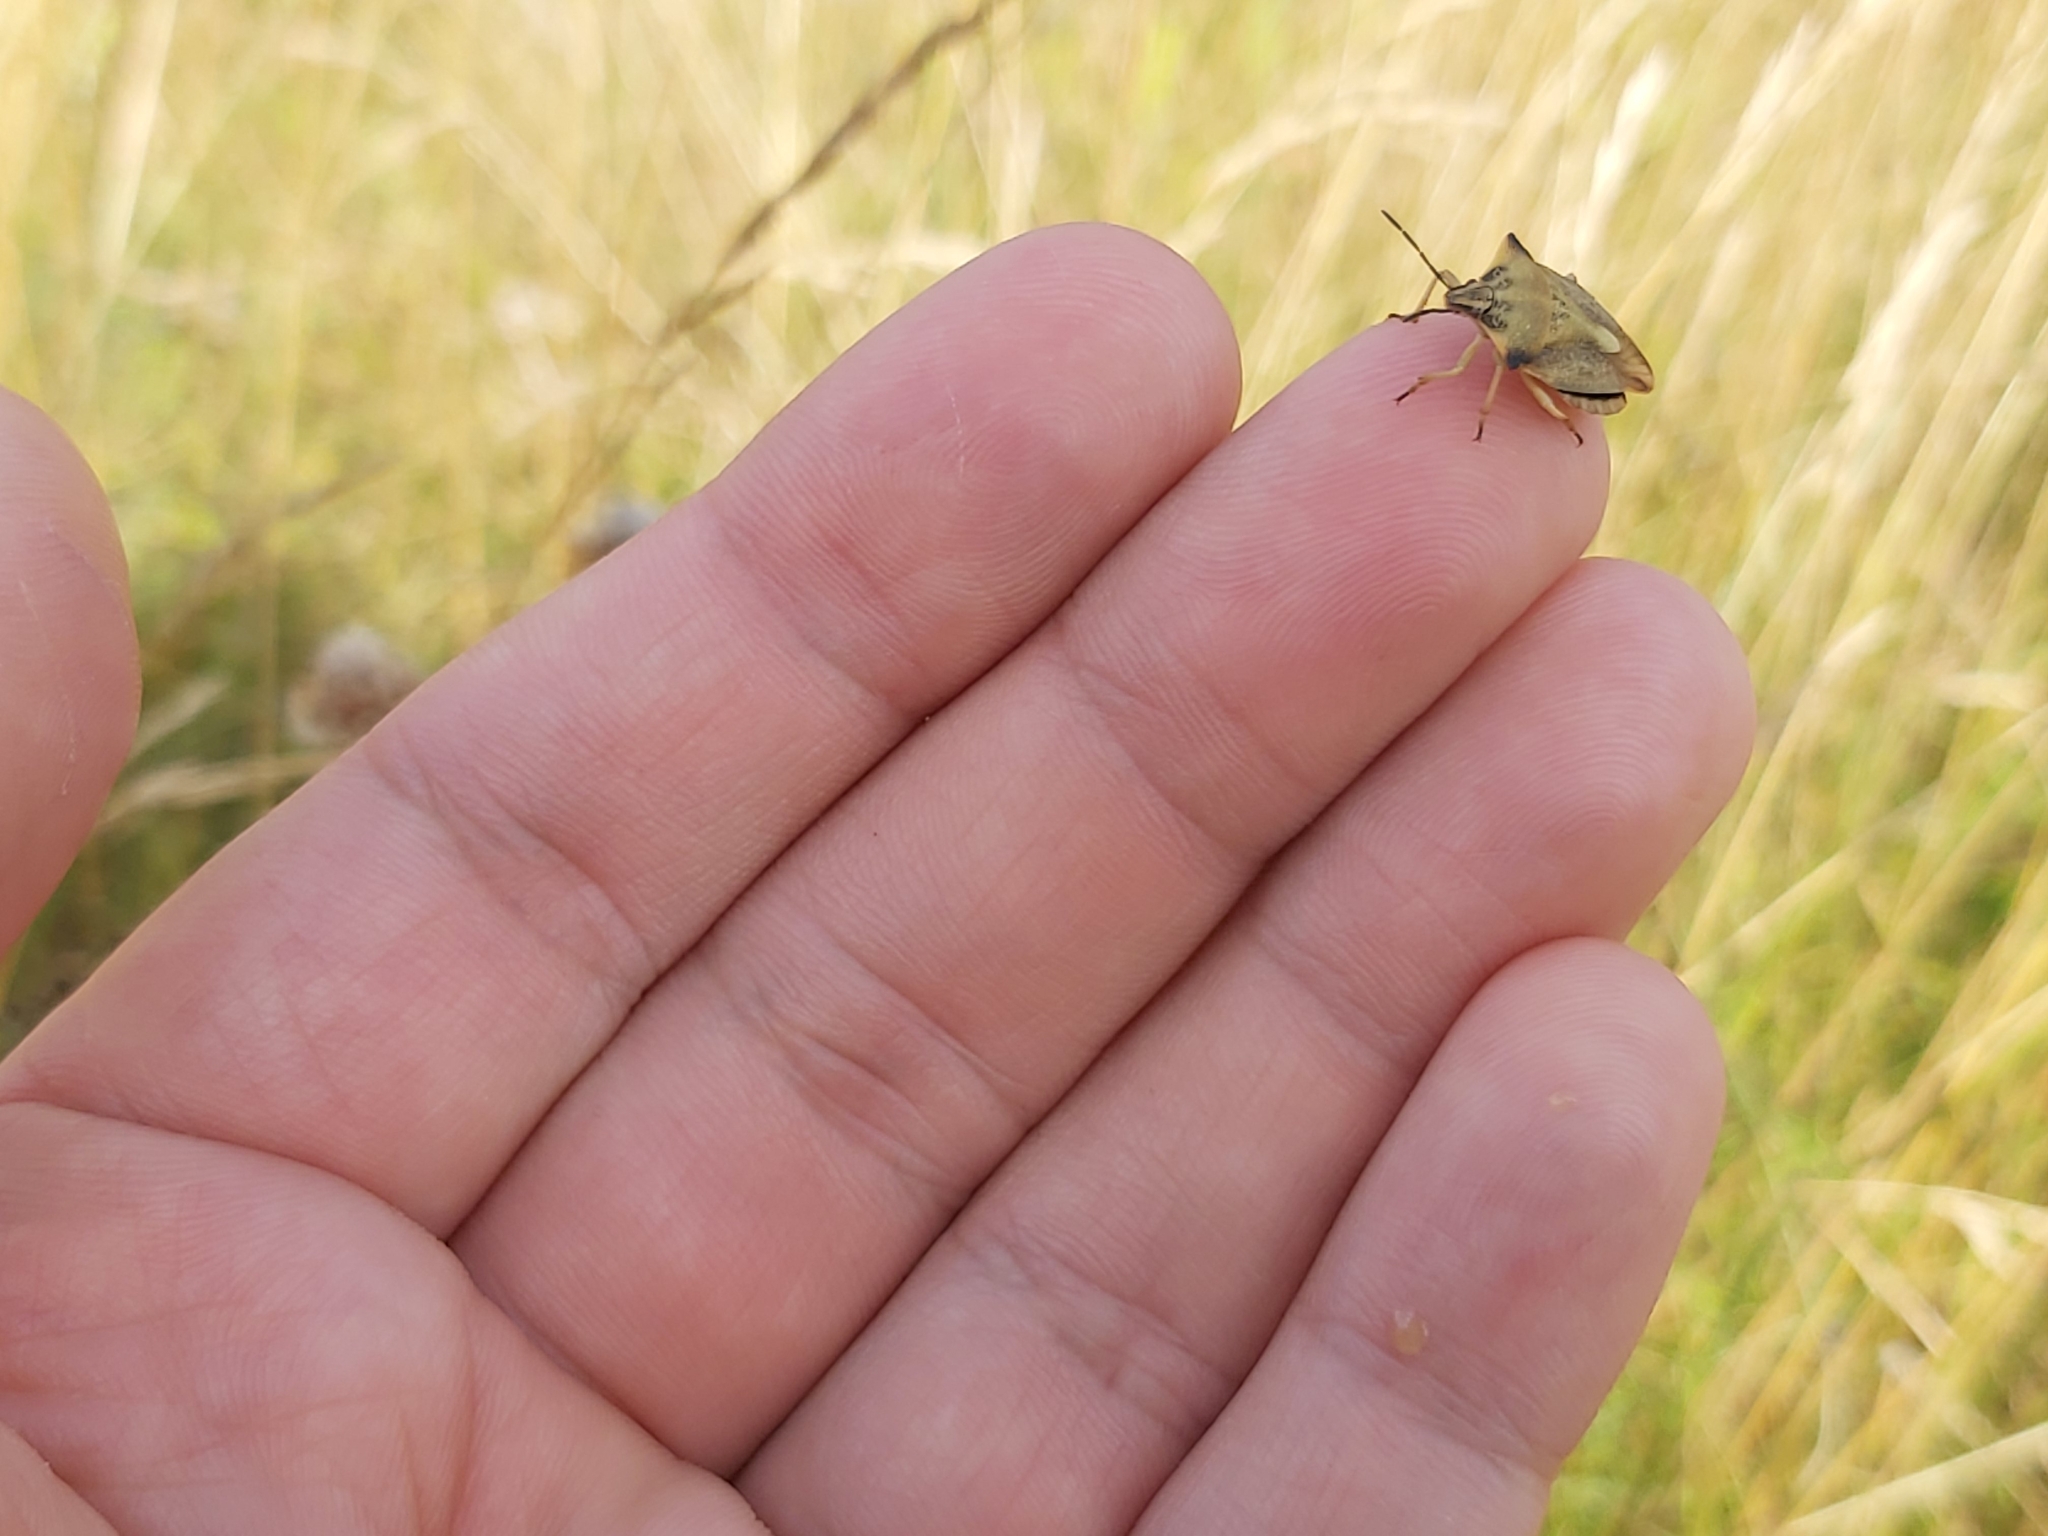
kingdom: Animalia
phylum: Arthropoda
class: Insecta
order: Hemiptera
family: Pentatomidae
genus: Carpocoris
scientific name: Carpocoris fuscispinus
